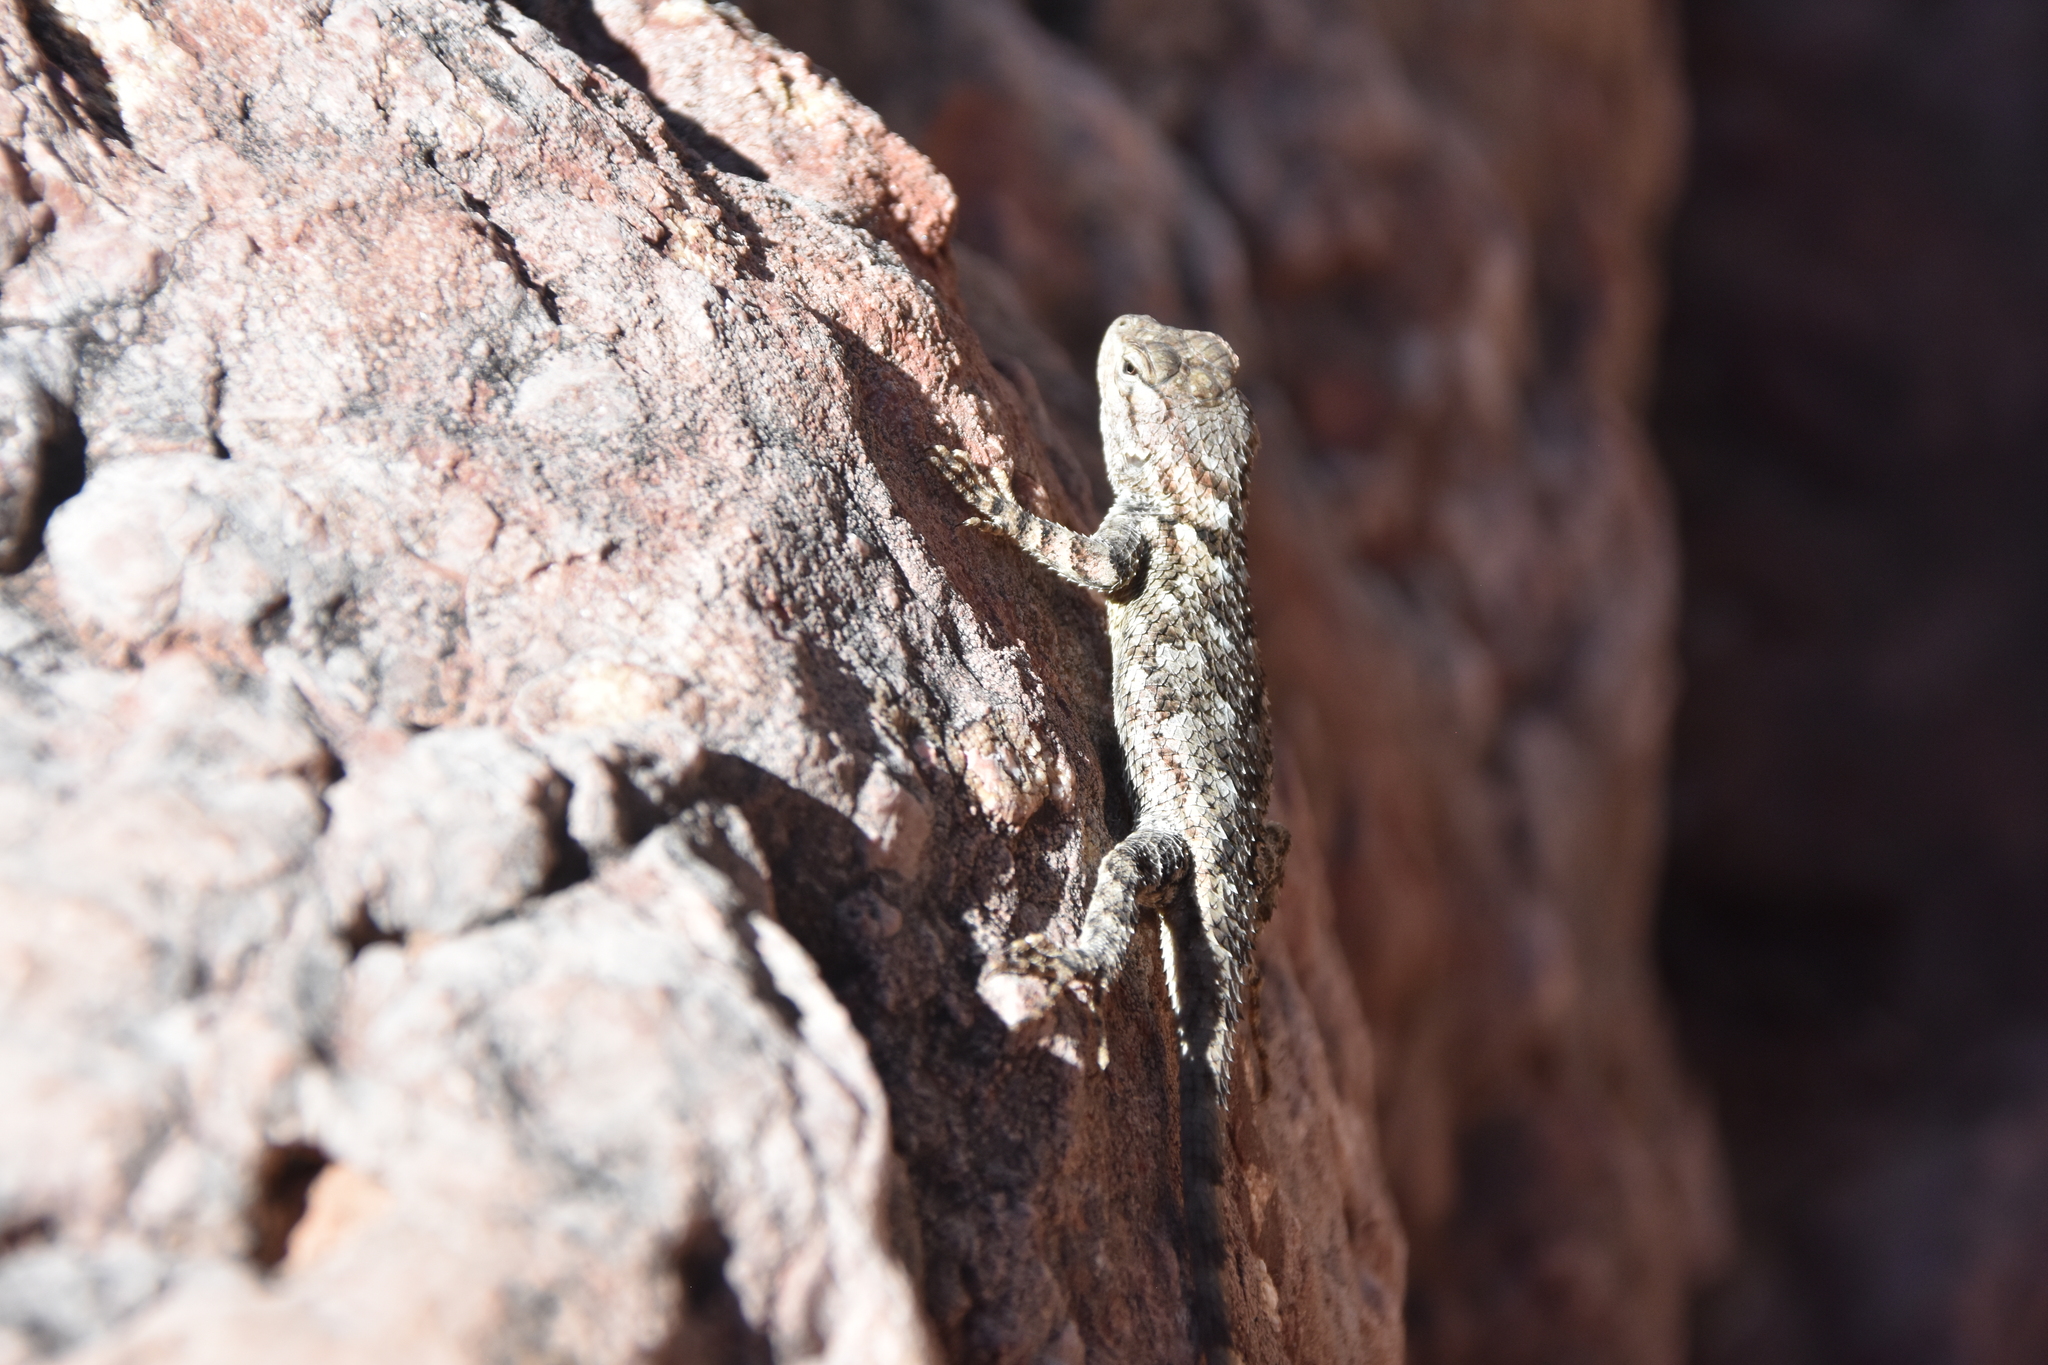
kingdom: Animalia
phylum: Chordata
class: Squamata
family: Phrynosomatidae
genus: Sceloporus
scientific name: Sceloporus clarkii
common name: Clark's spiny lizard
